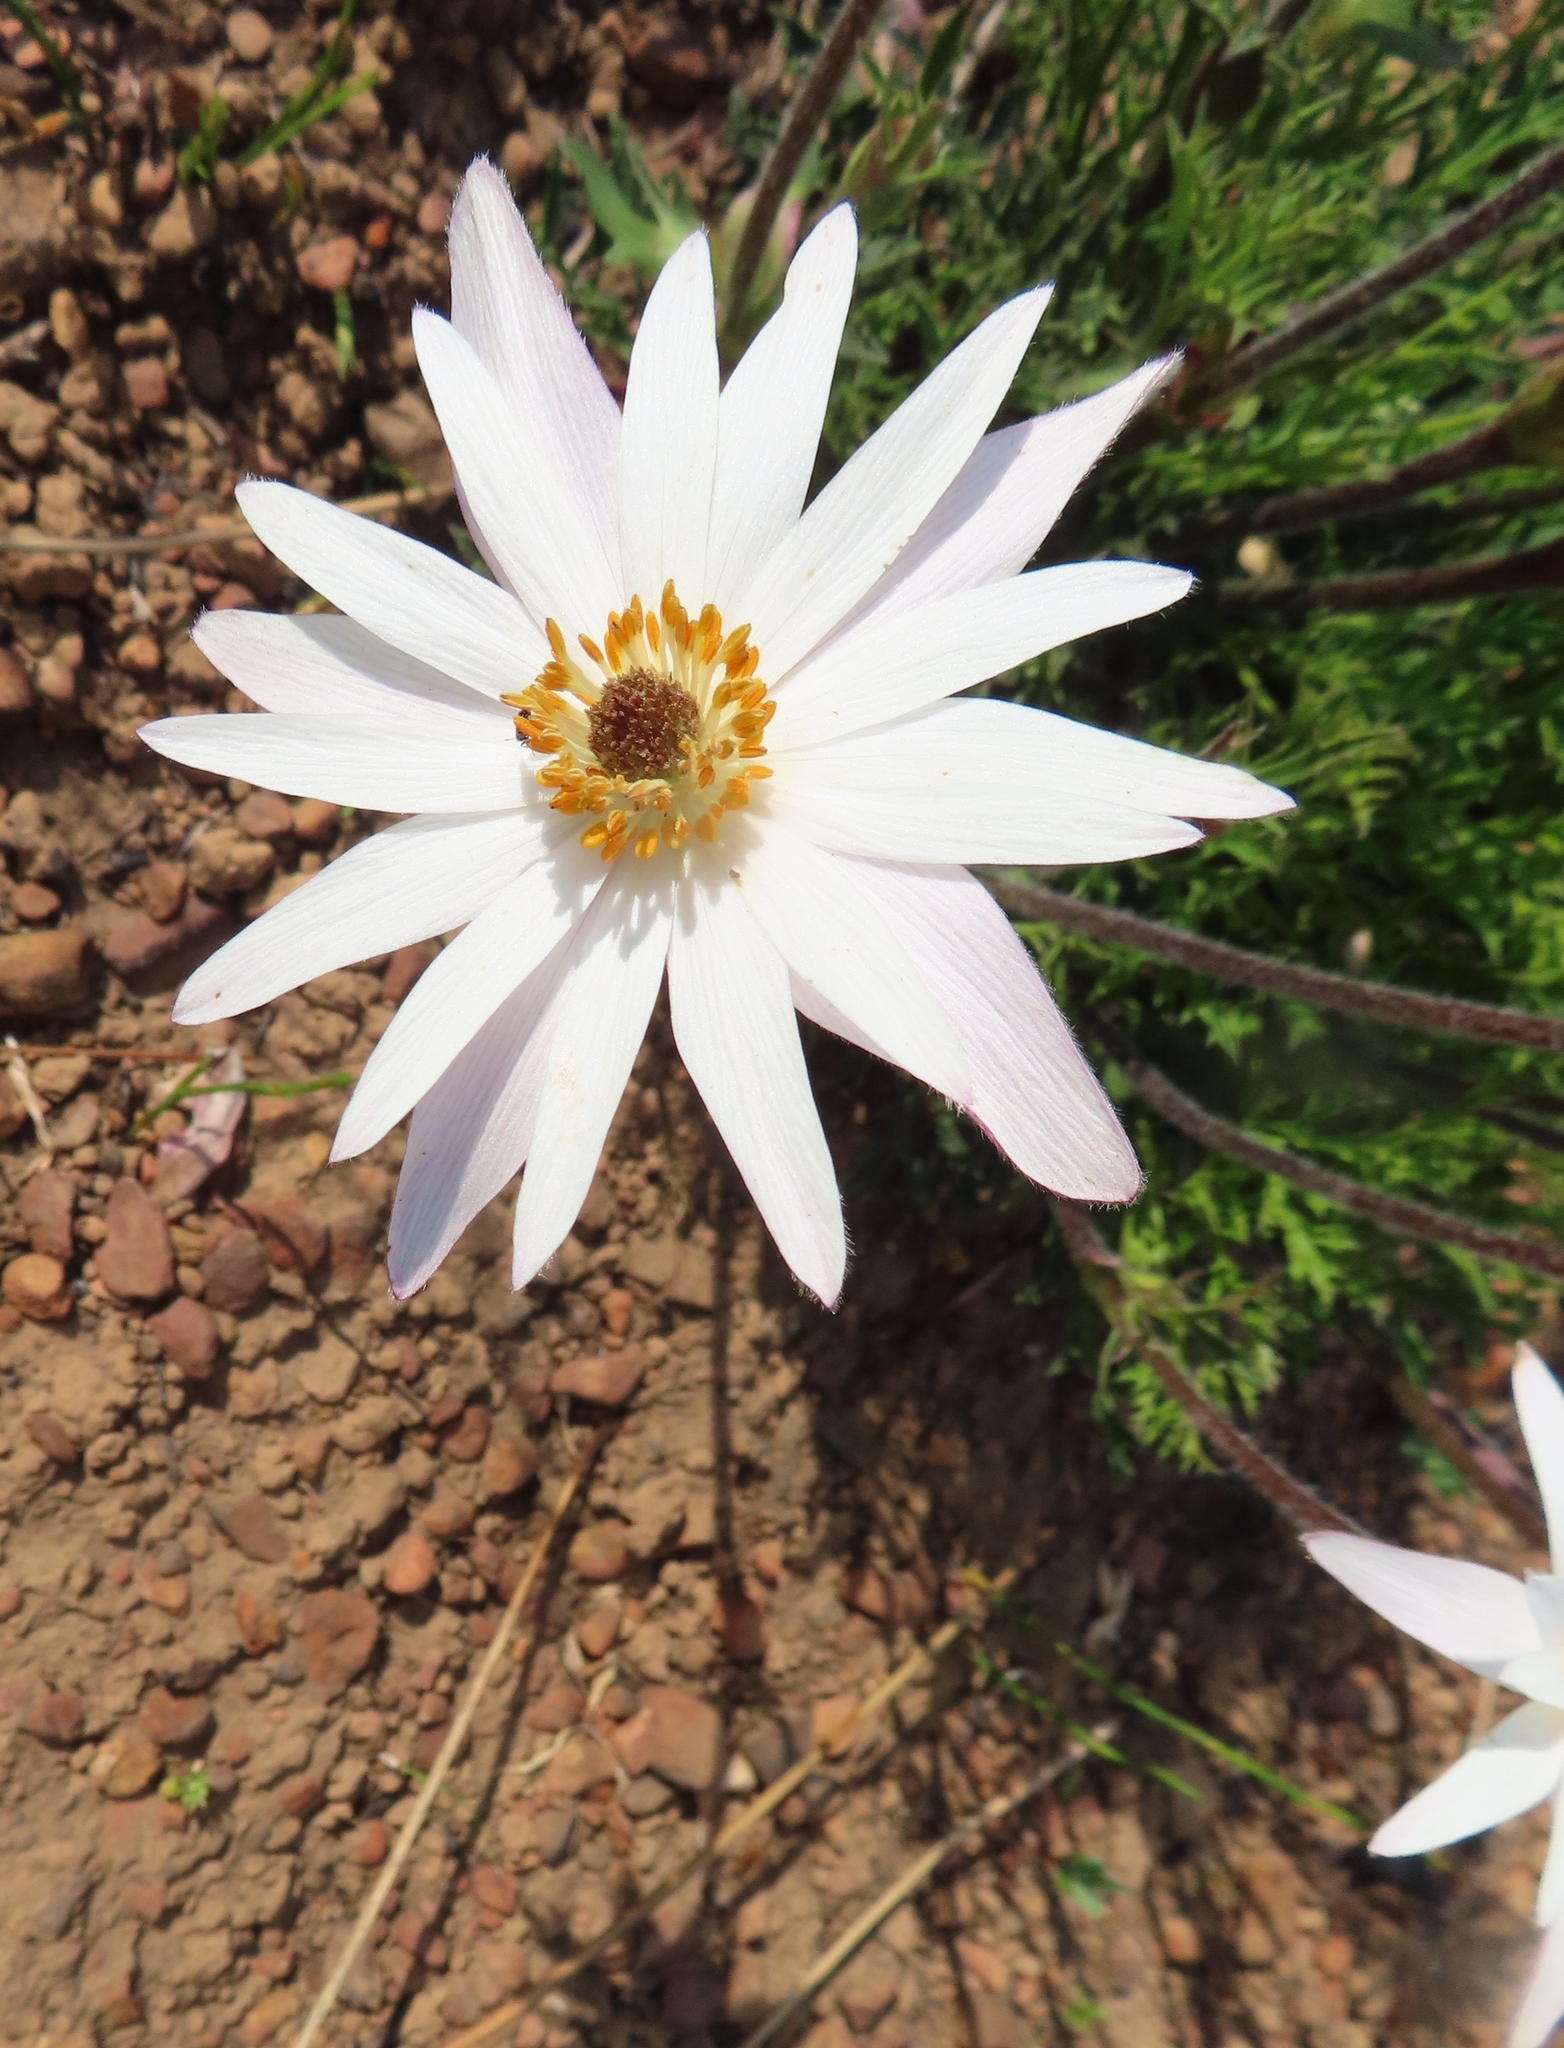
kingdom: Plantae
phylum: Tracheophyta
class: Magnoliopsida
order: Ranunculales
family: Ranunculaceae
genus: Knowltonia
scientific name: Knowltonia tenuifolia
